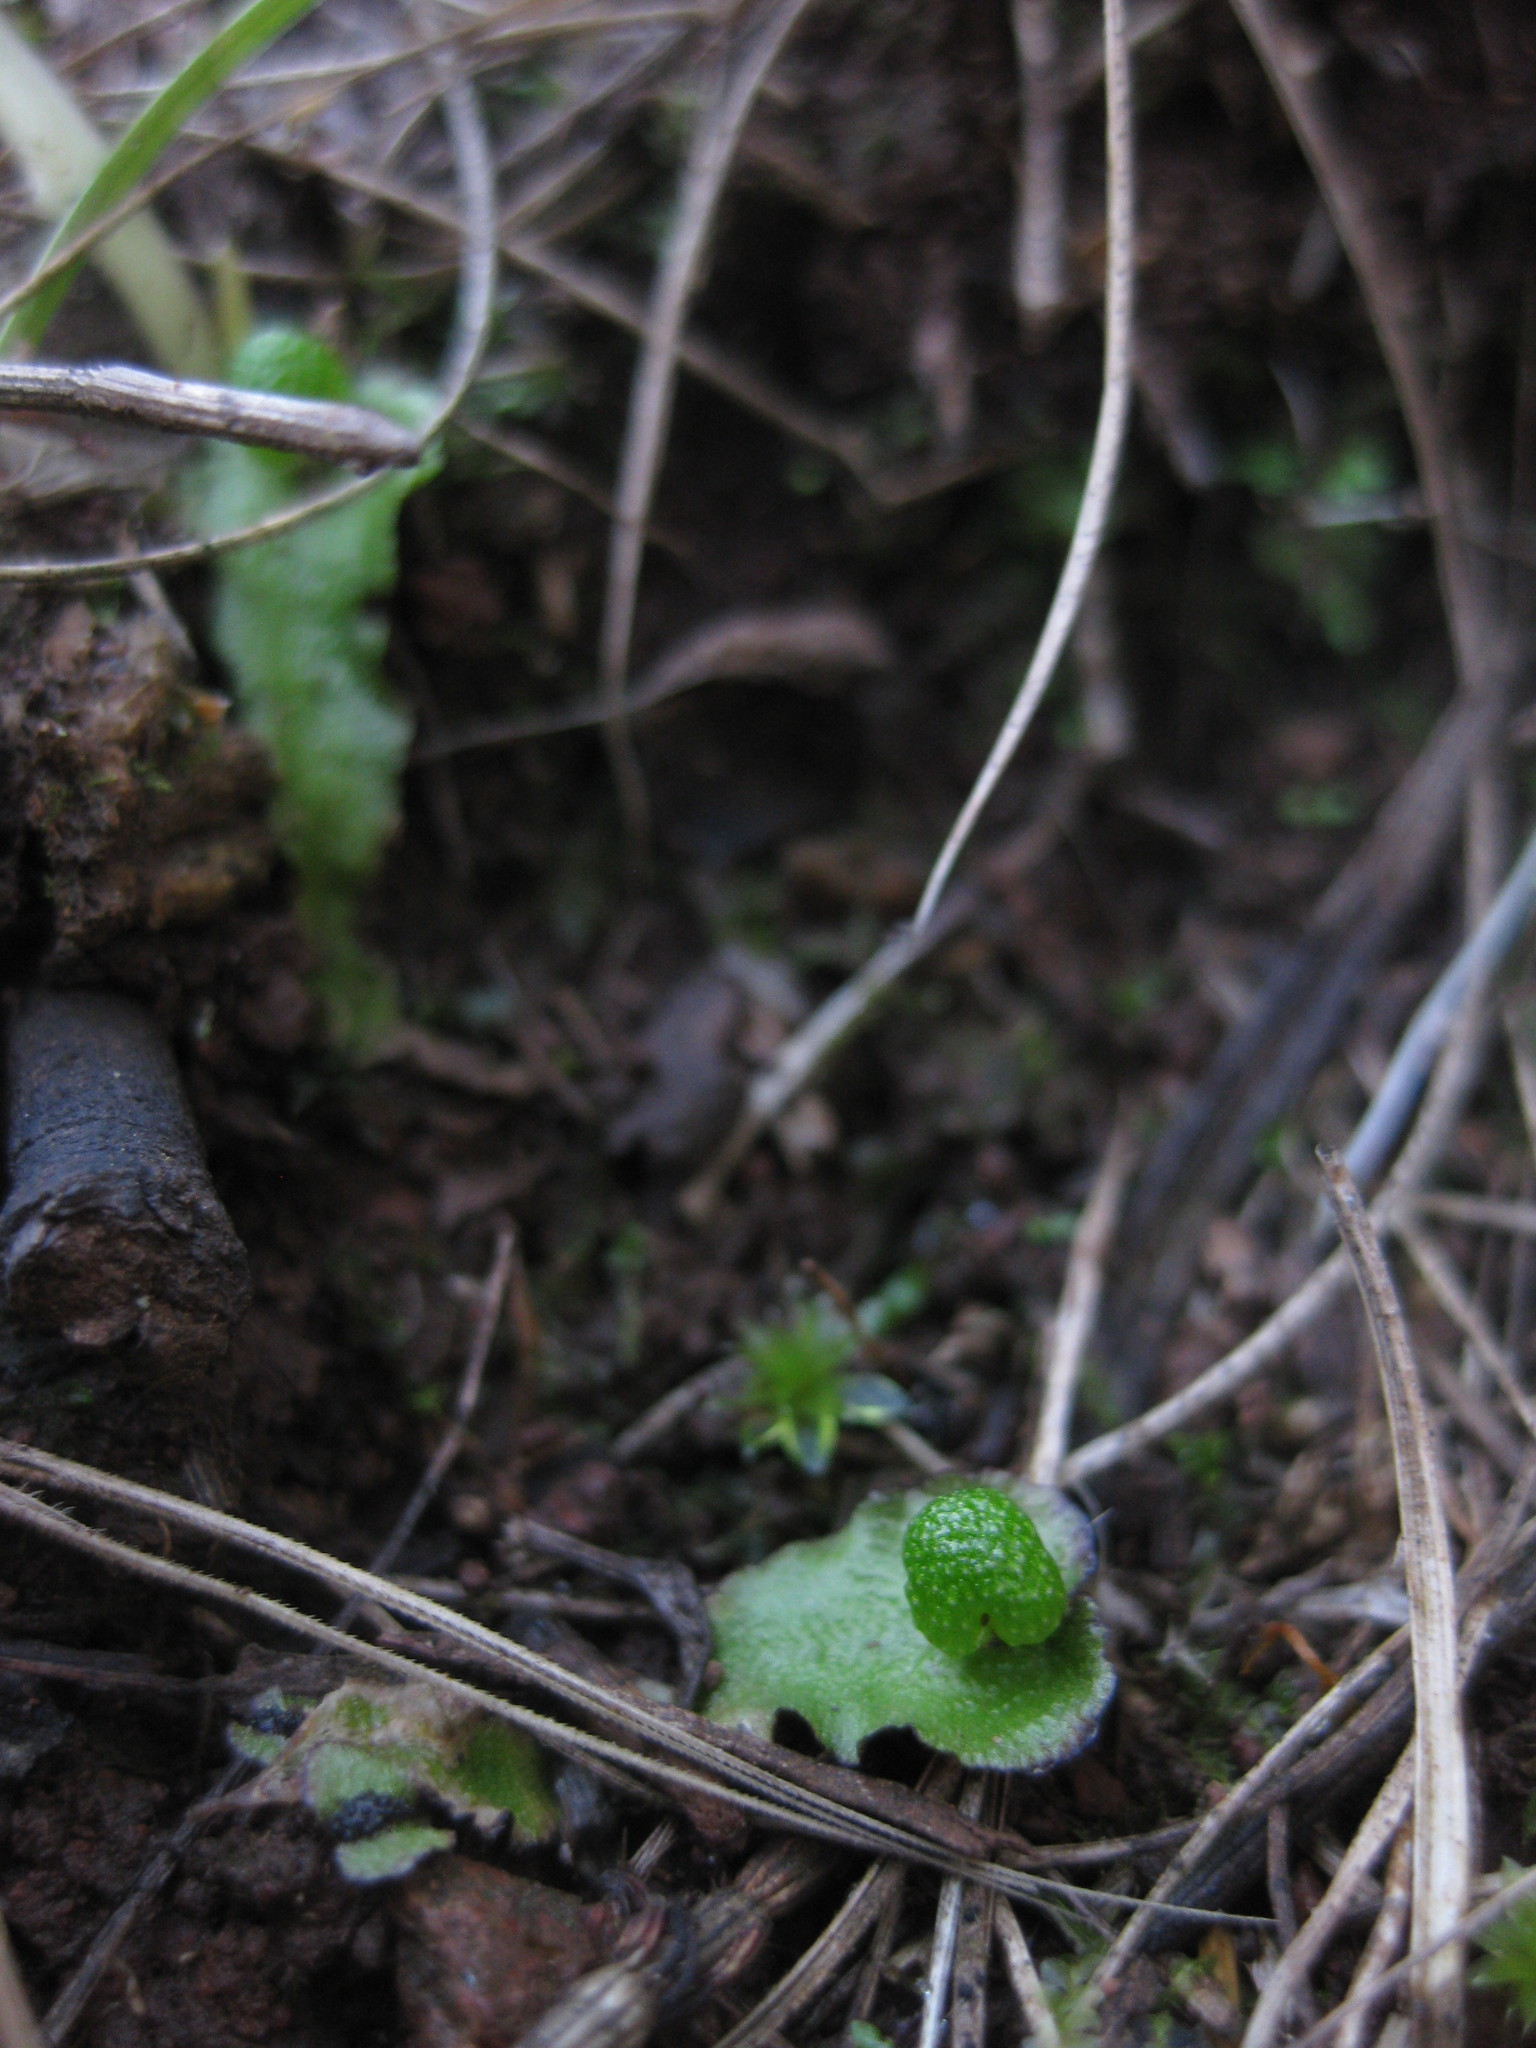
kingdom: Plantae
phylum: Marchantiophyta
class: Marchantiopsida
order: Marchantiales
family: Aytoniaceae
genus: Asterella
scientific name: Asterella drummondii
